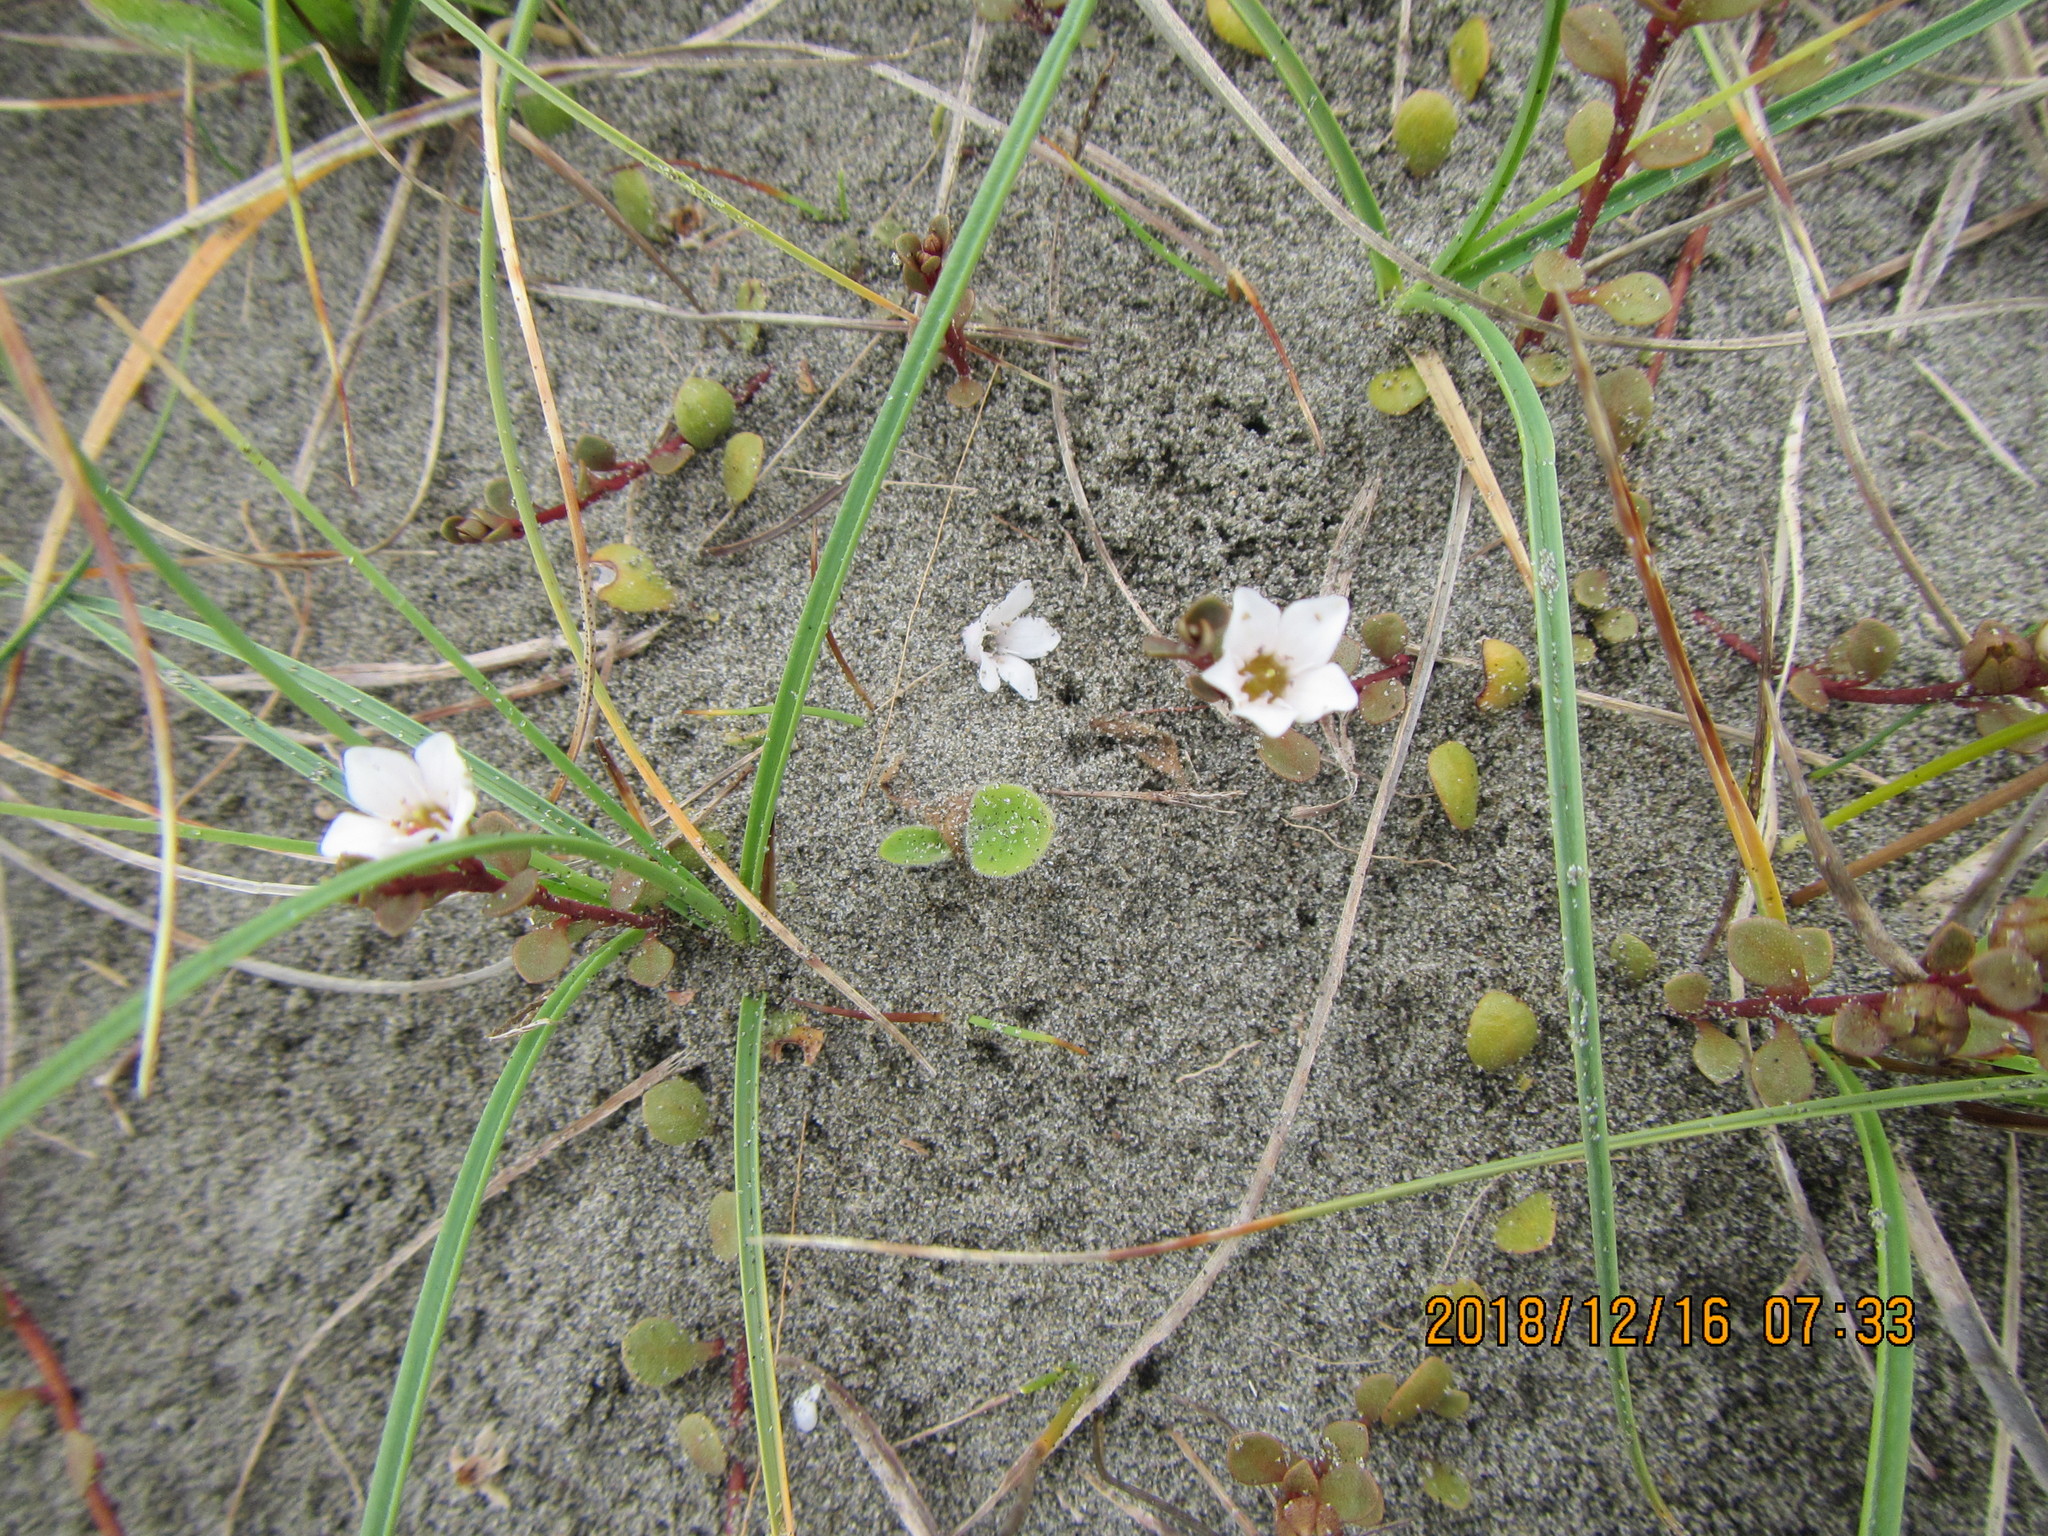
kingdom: Plantae
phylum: Tracheophyta
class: Magnoliopsida
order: Ericales
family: Primulaceae
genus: Samolus
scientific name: Samolus repens
